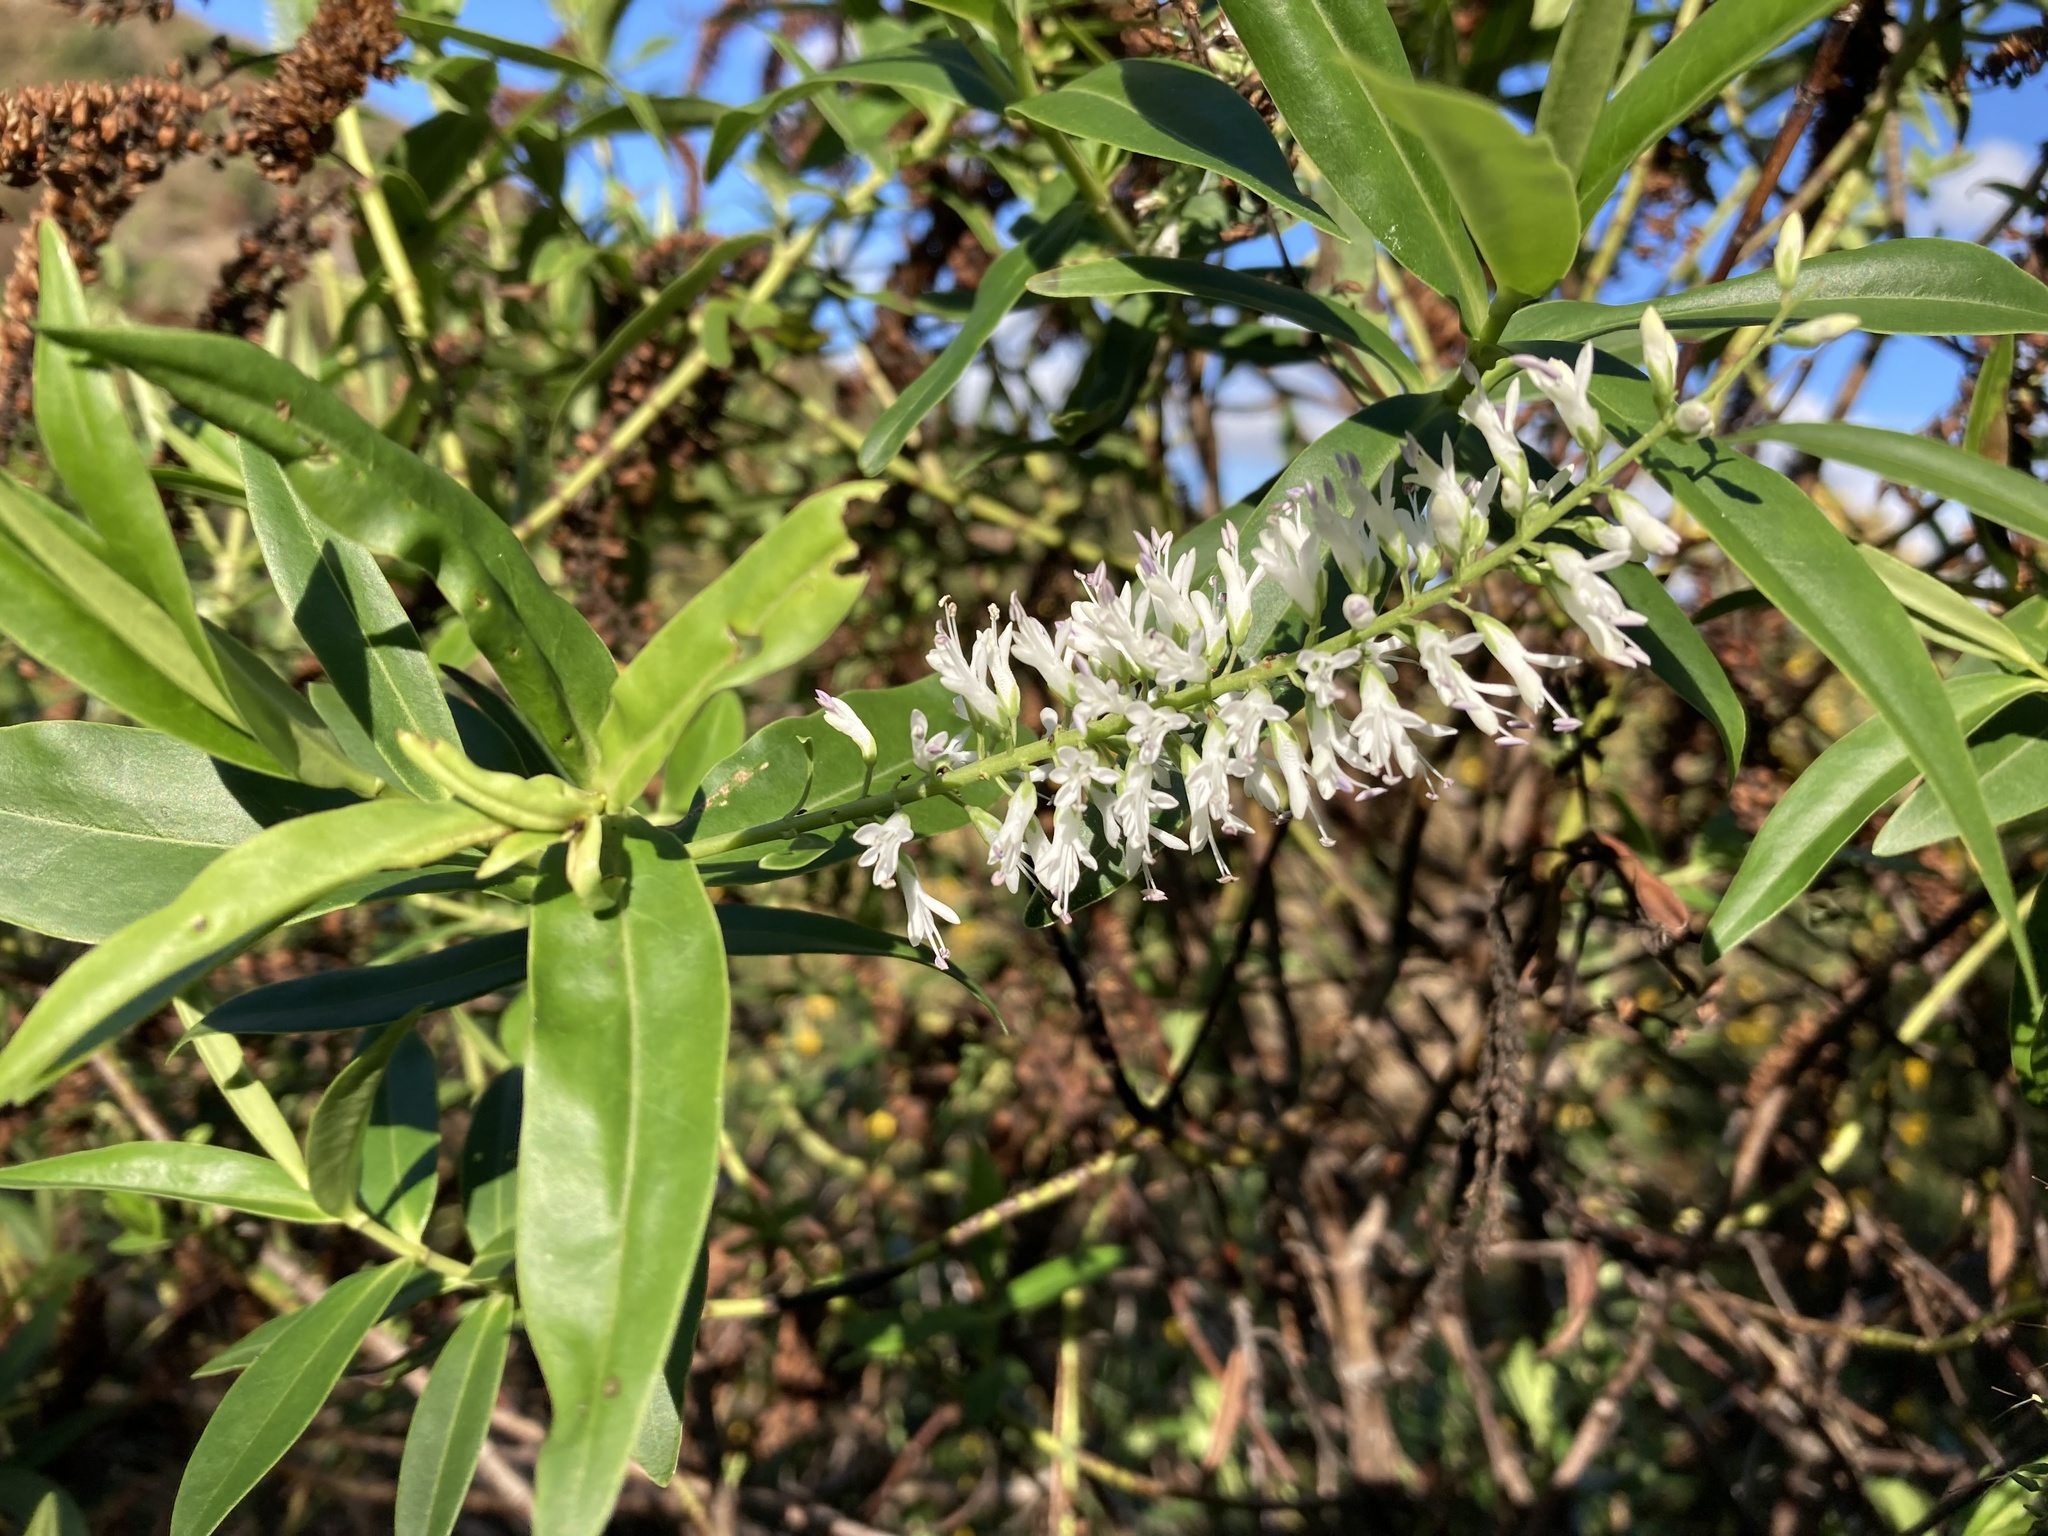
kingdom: Plantae
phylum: Tracheophyta
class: Magnoliopsida
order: Lamiales
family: Plantaginaceae
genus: Veronica
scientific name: Veronica stricta
